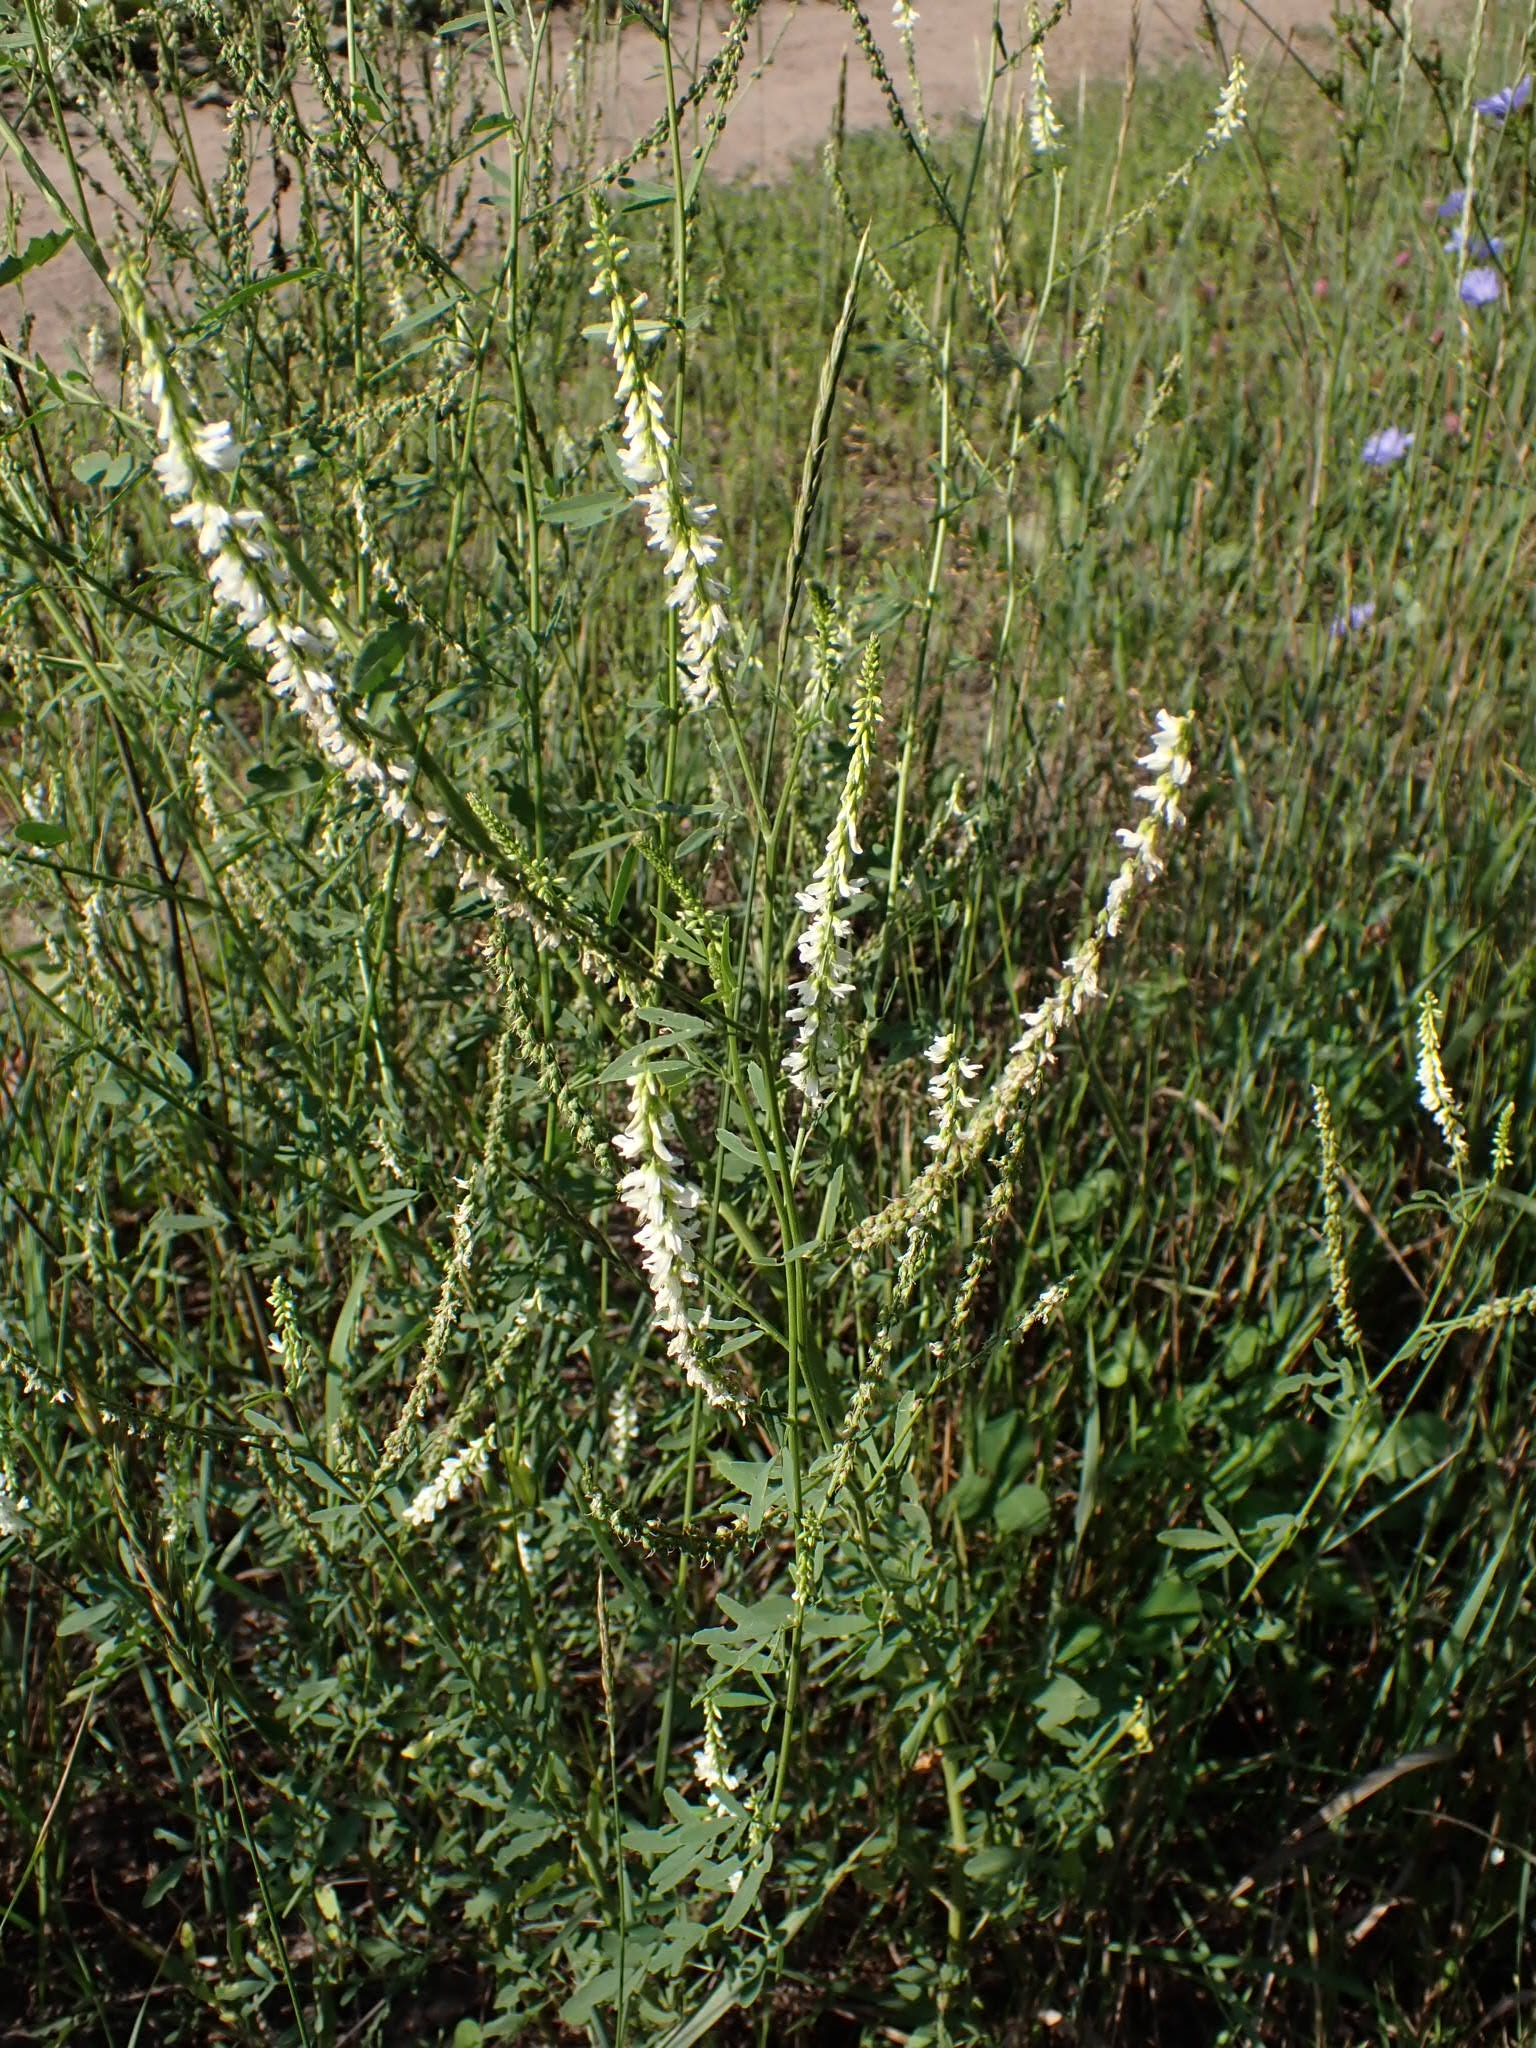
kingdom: Plantae
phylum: Tracheophyta
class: Magnoliopsida
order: Fabales
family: Fabaceae
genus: Melilotus
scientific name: Melilotus albus
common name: White melilot
